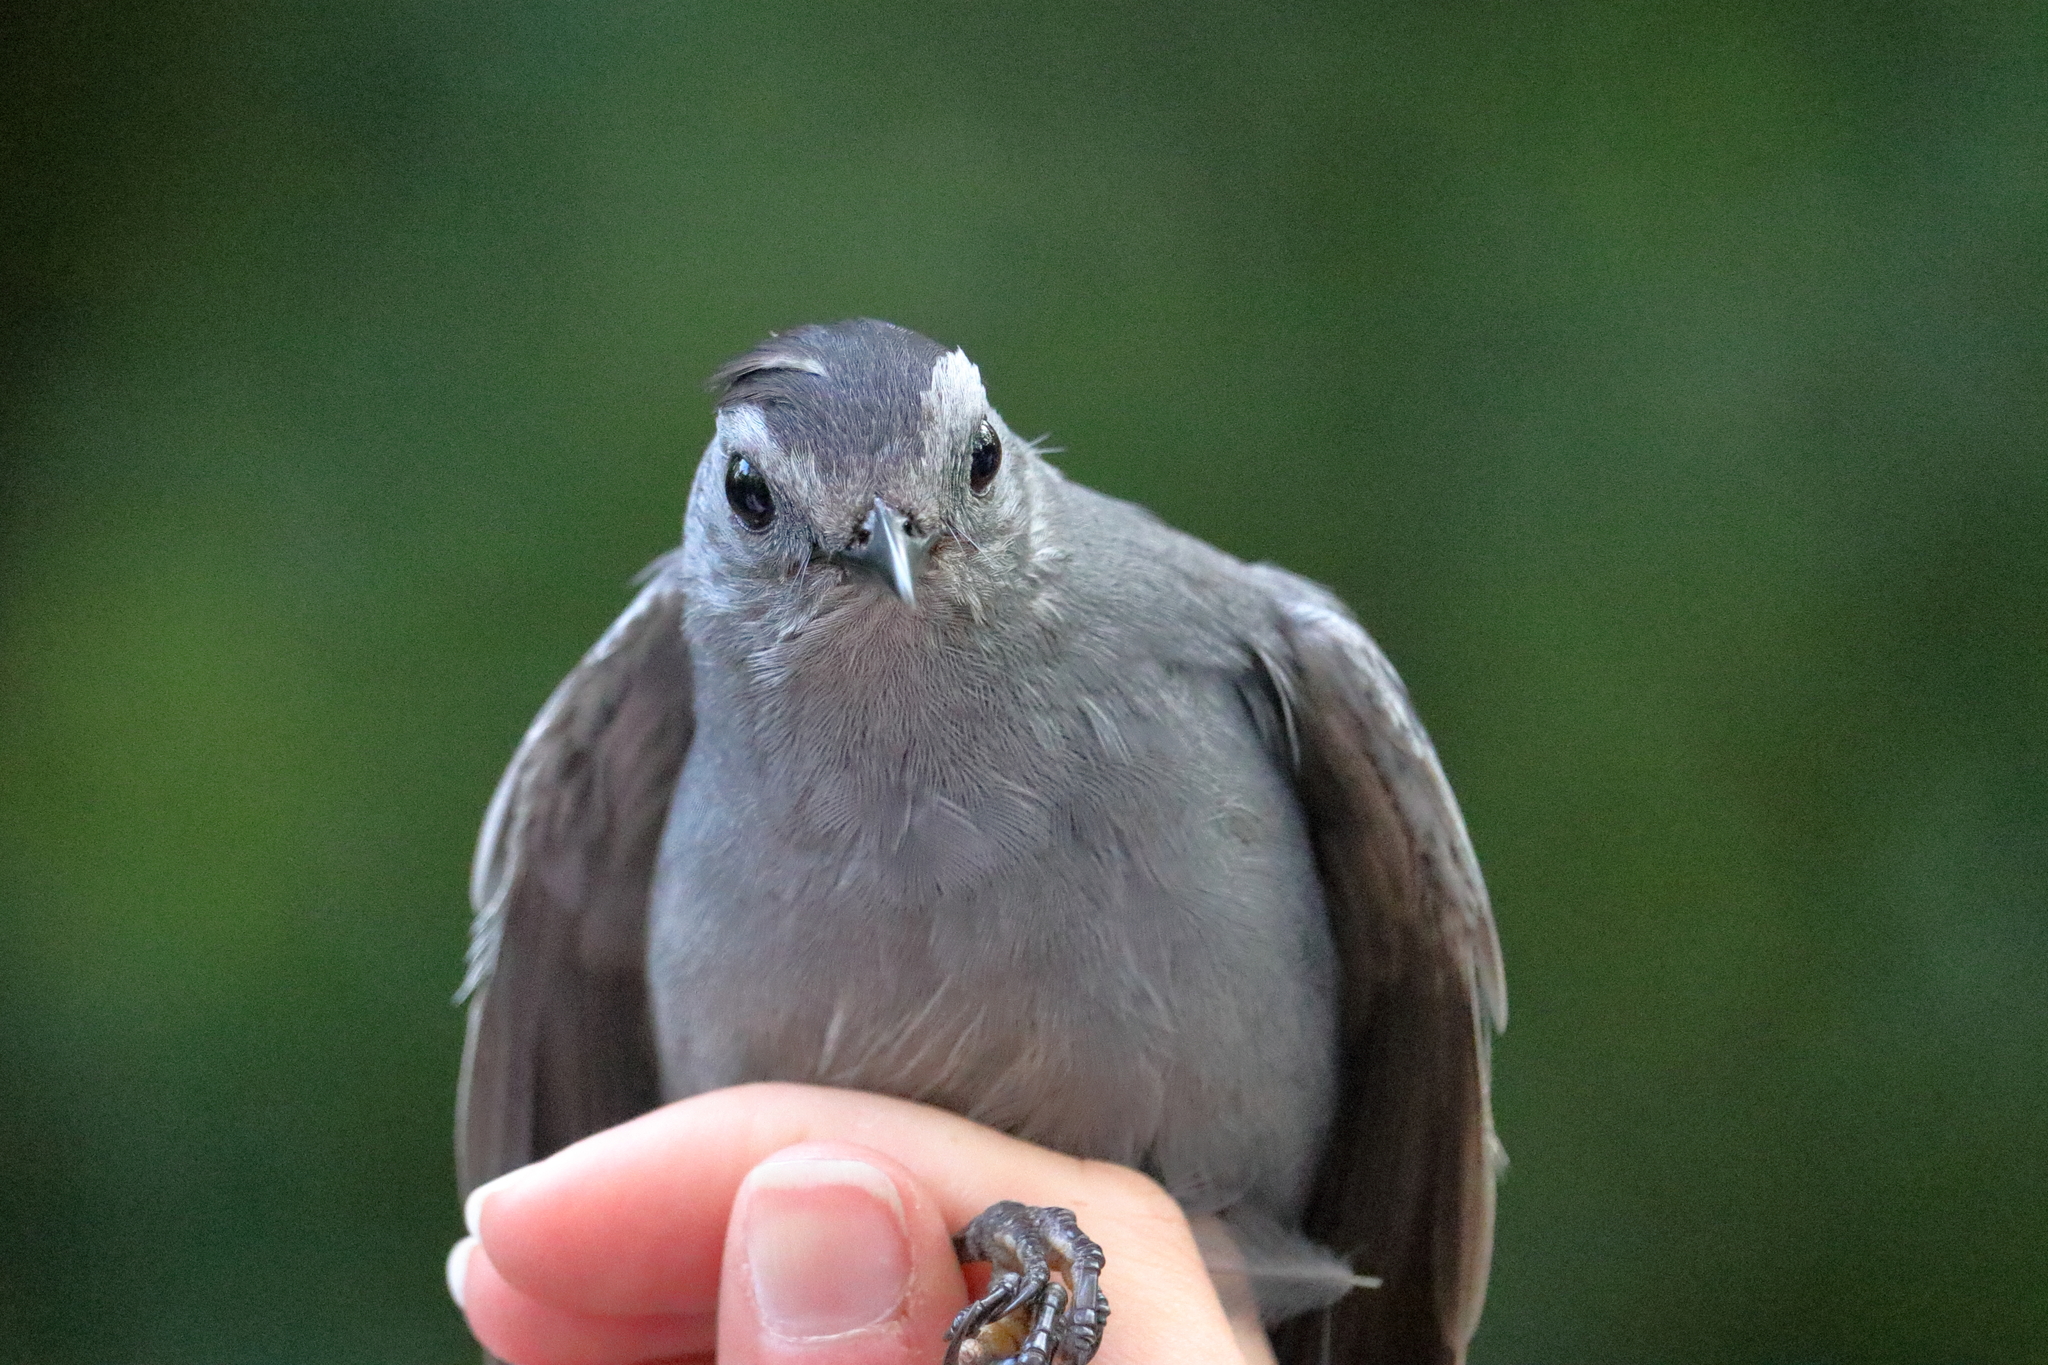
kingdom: Animalia
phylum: Chordata
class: Aves
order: Passeriformes
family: Mimidae
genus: Dumetella
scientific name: Dumetella carolinensis
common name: Gray catbird
